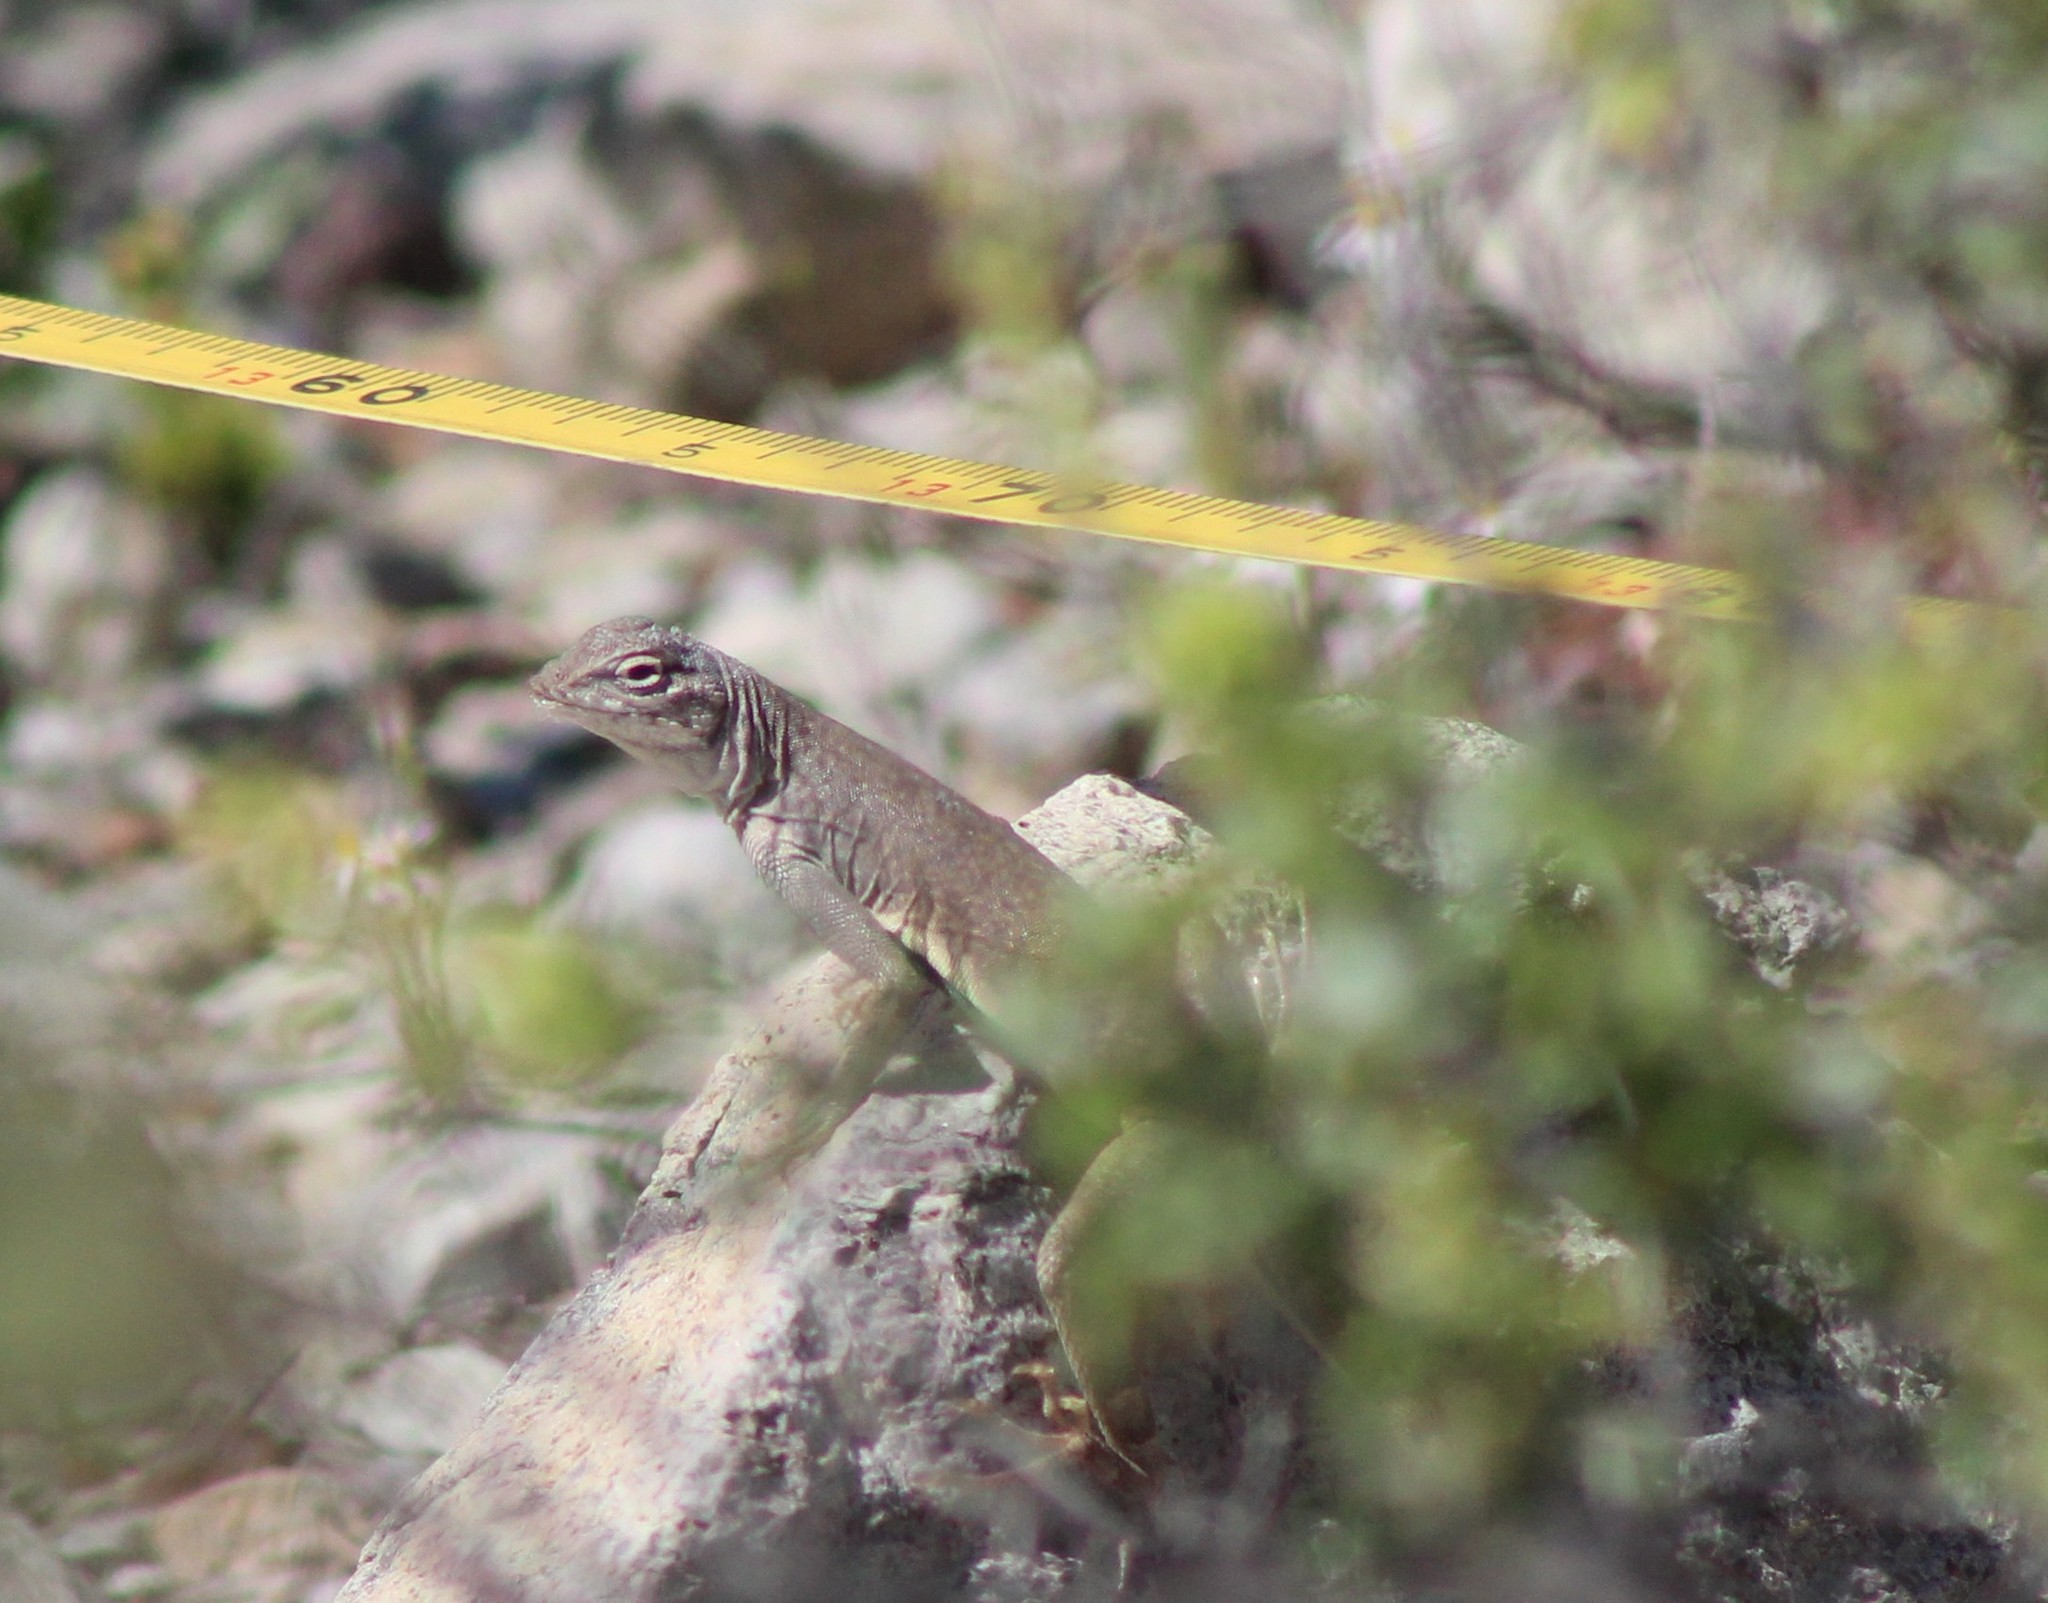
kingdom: Animalia
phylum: Chordata
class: Squamata
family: Phrynosomatidae
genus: Callisaurus
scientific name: Callisaurus draconoides
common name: Zebra-tailed lizard
